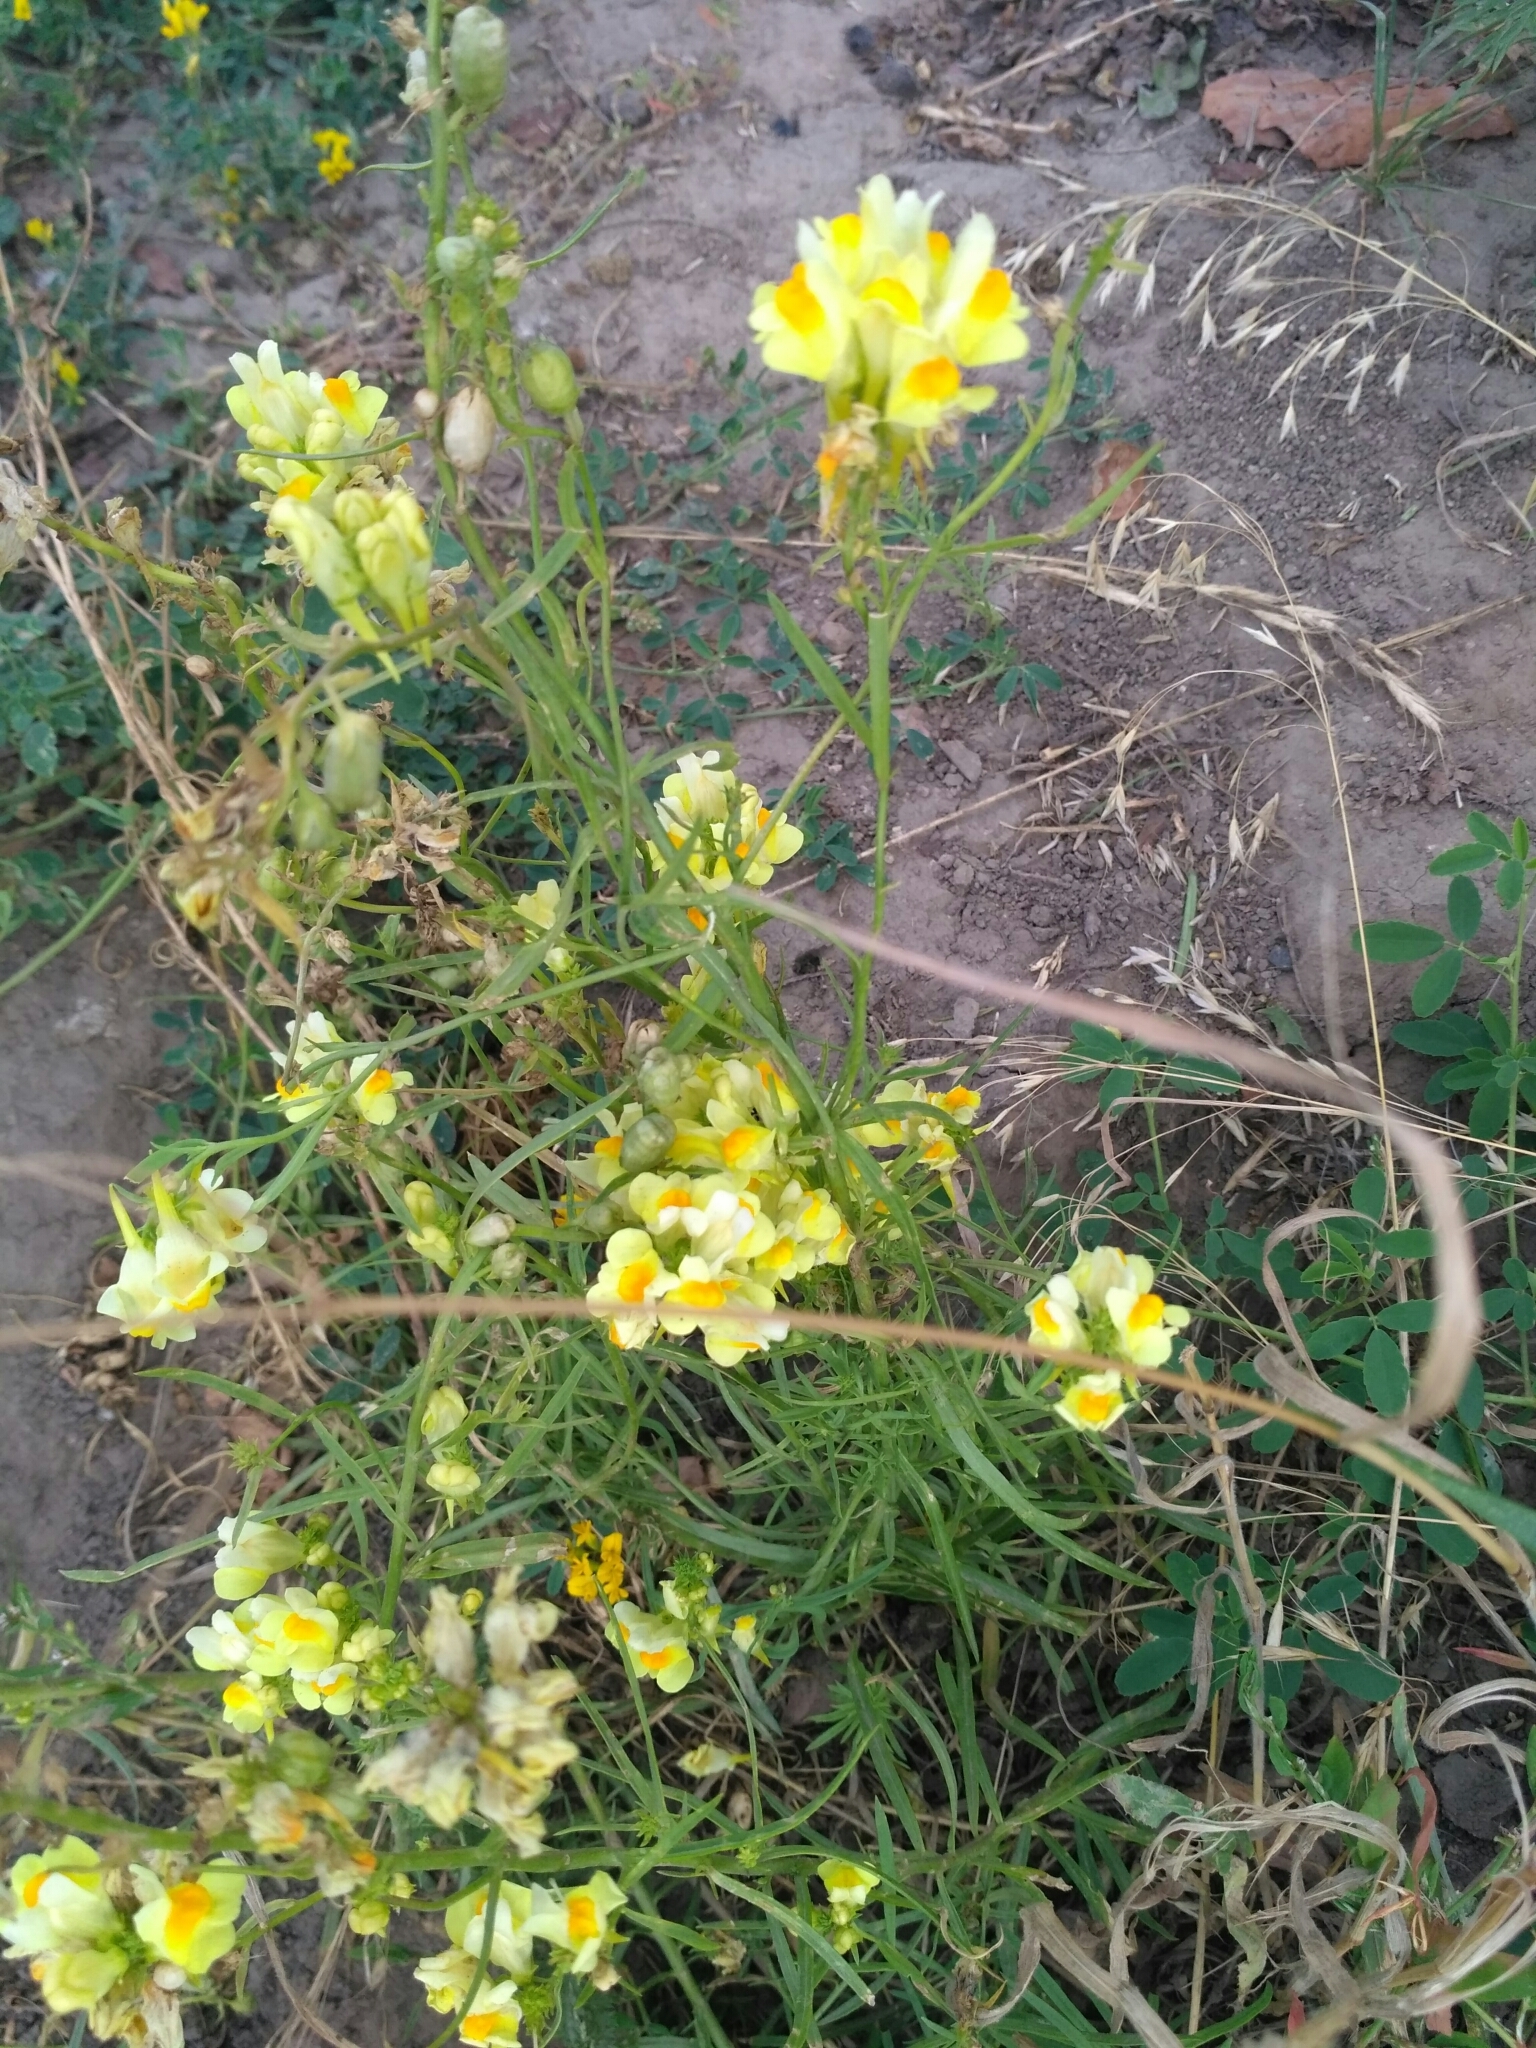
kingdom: Plantae
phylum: Tracheophyta
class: Magnoliopsida
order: Lamiales
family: Plantaginaceae
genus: Linaria
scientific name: Linaria vulgaris
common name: Butter and eggs
